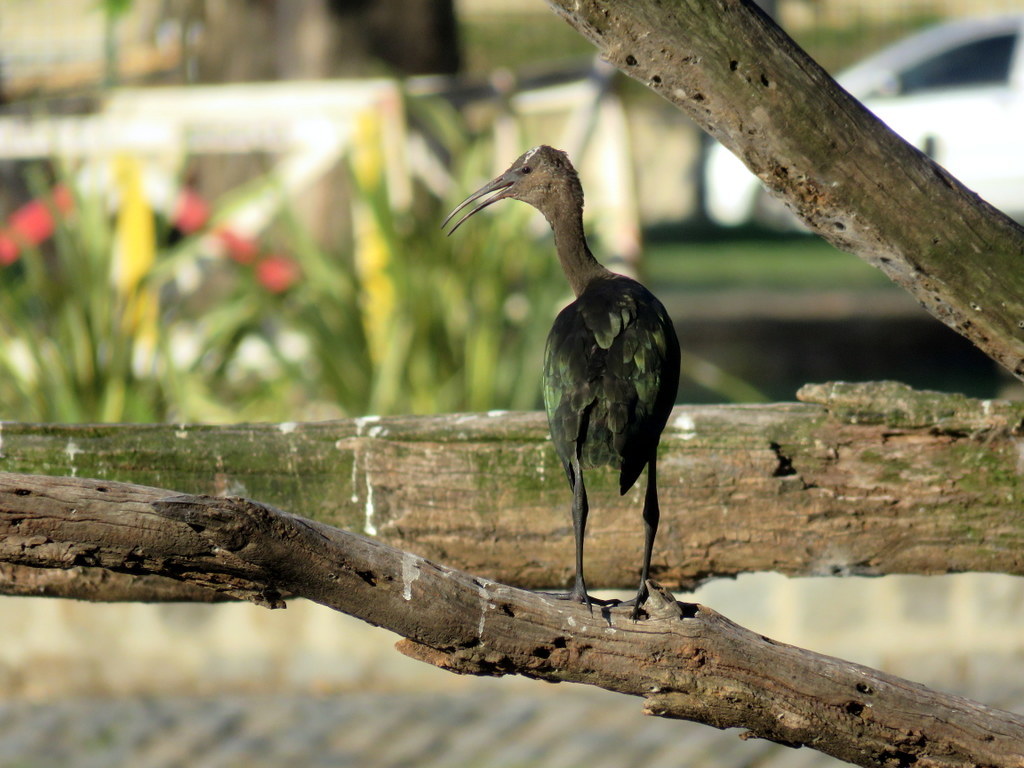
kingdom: Animalia
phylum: Chordata
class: Aves
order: Pelecaniformes
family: Threskiornithidae
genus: Plegadis
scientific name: Plegadis chihi
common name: White-faced ibis
